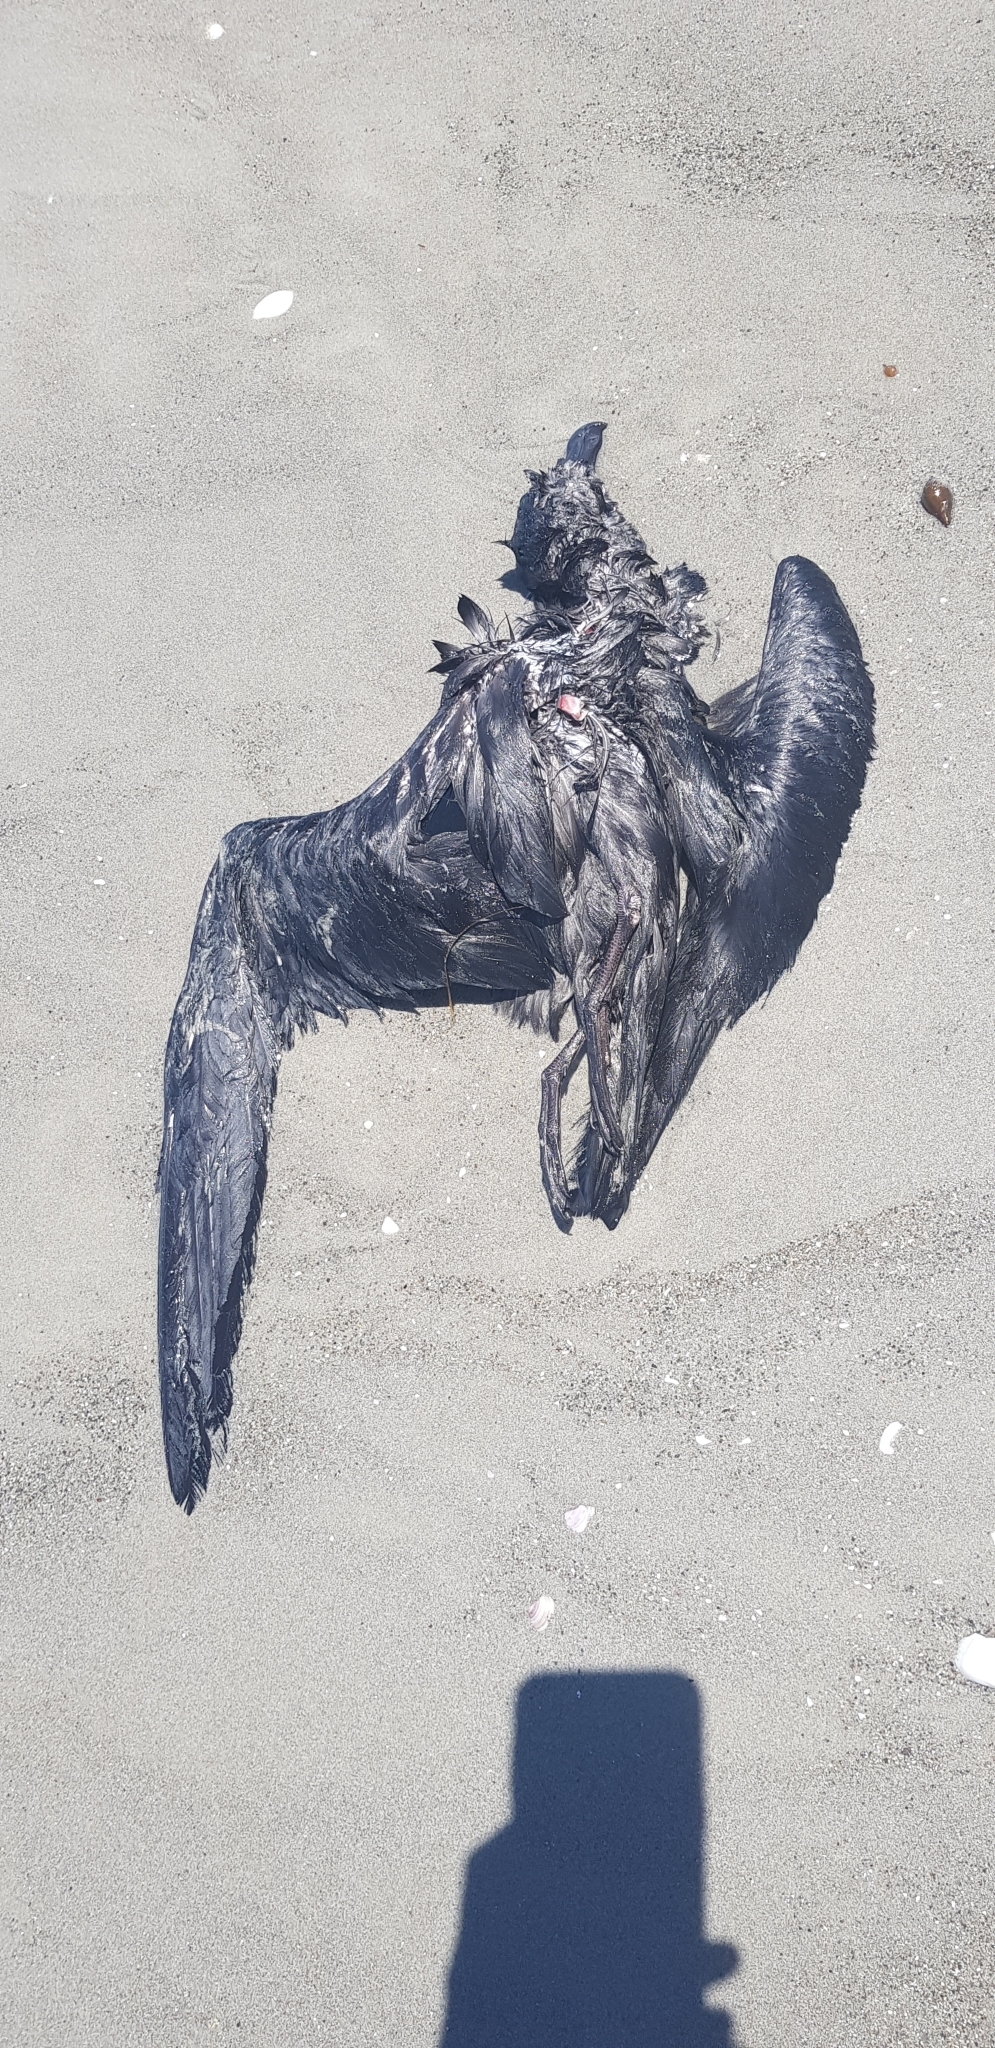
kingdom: Animalia
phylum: Chordata
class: Aves
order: Procellariiformes
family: Procellariidae
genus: Pterodroma
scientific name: Pterodroma macroptera
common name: Great-winged petrel
